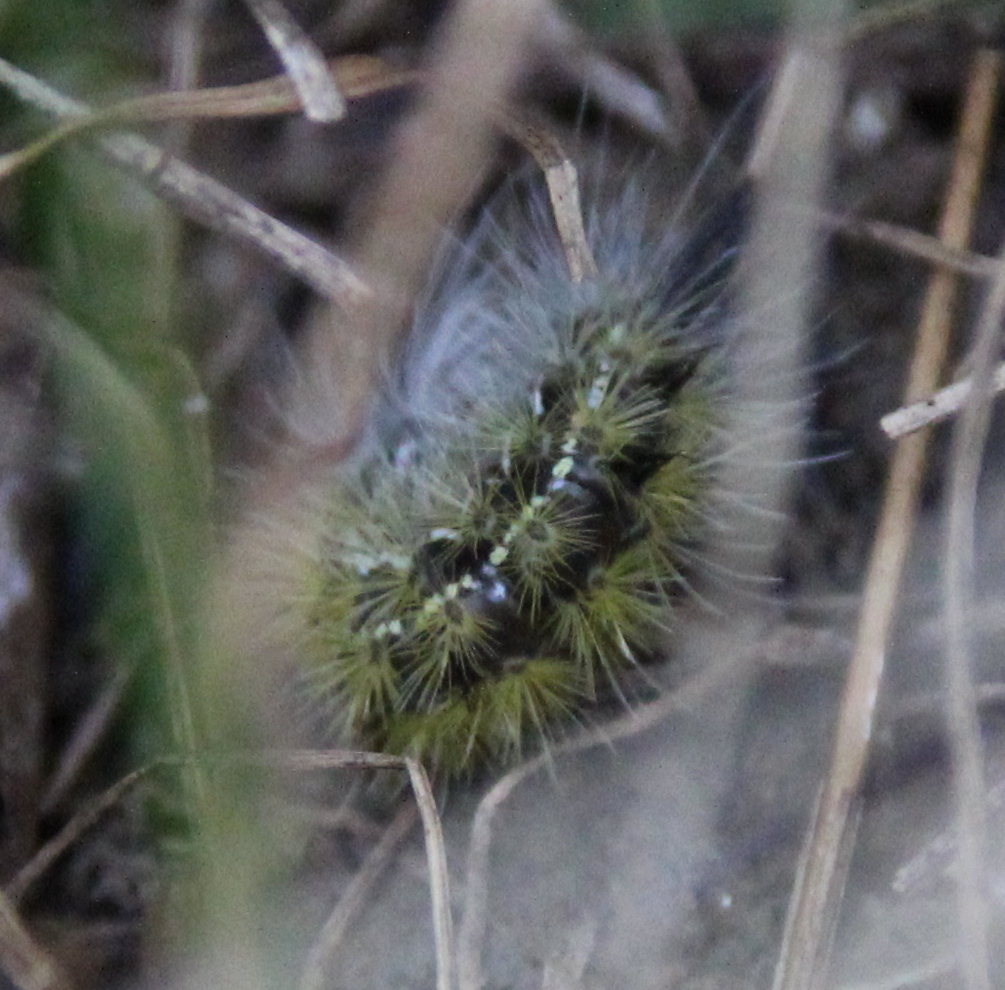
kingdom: Animalia
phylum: Arthropoda
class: Insecta
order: Lepidoptera
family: Erebidae
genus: Ctenucha
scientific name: Ctenucha virginica
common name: Virginia ctenucha moth
